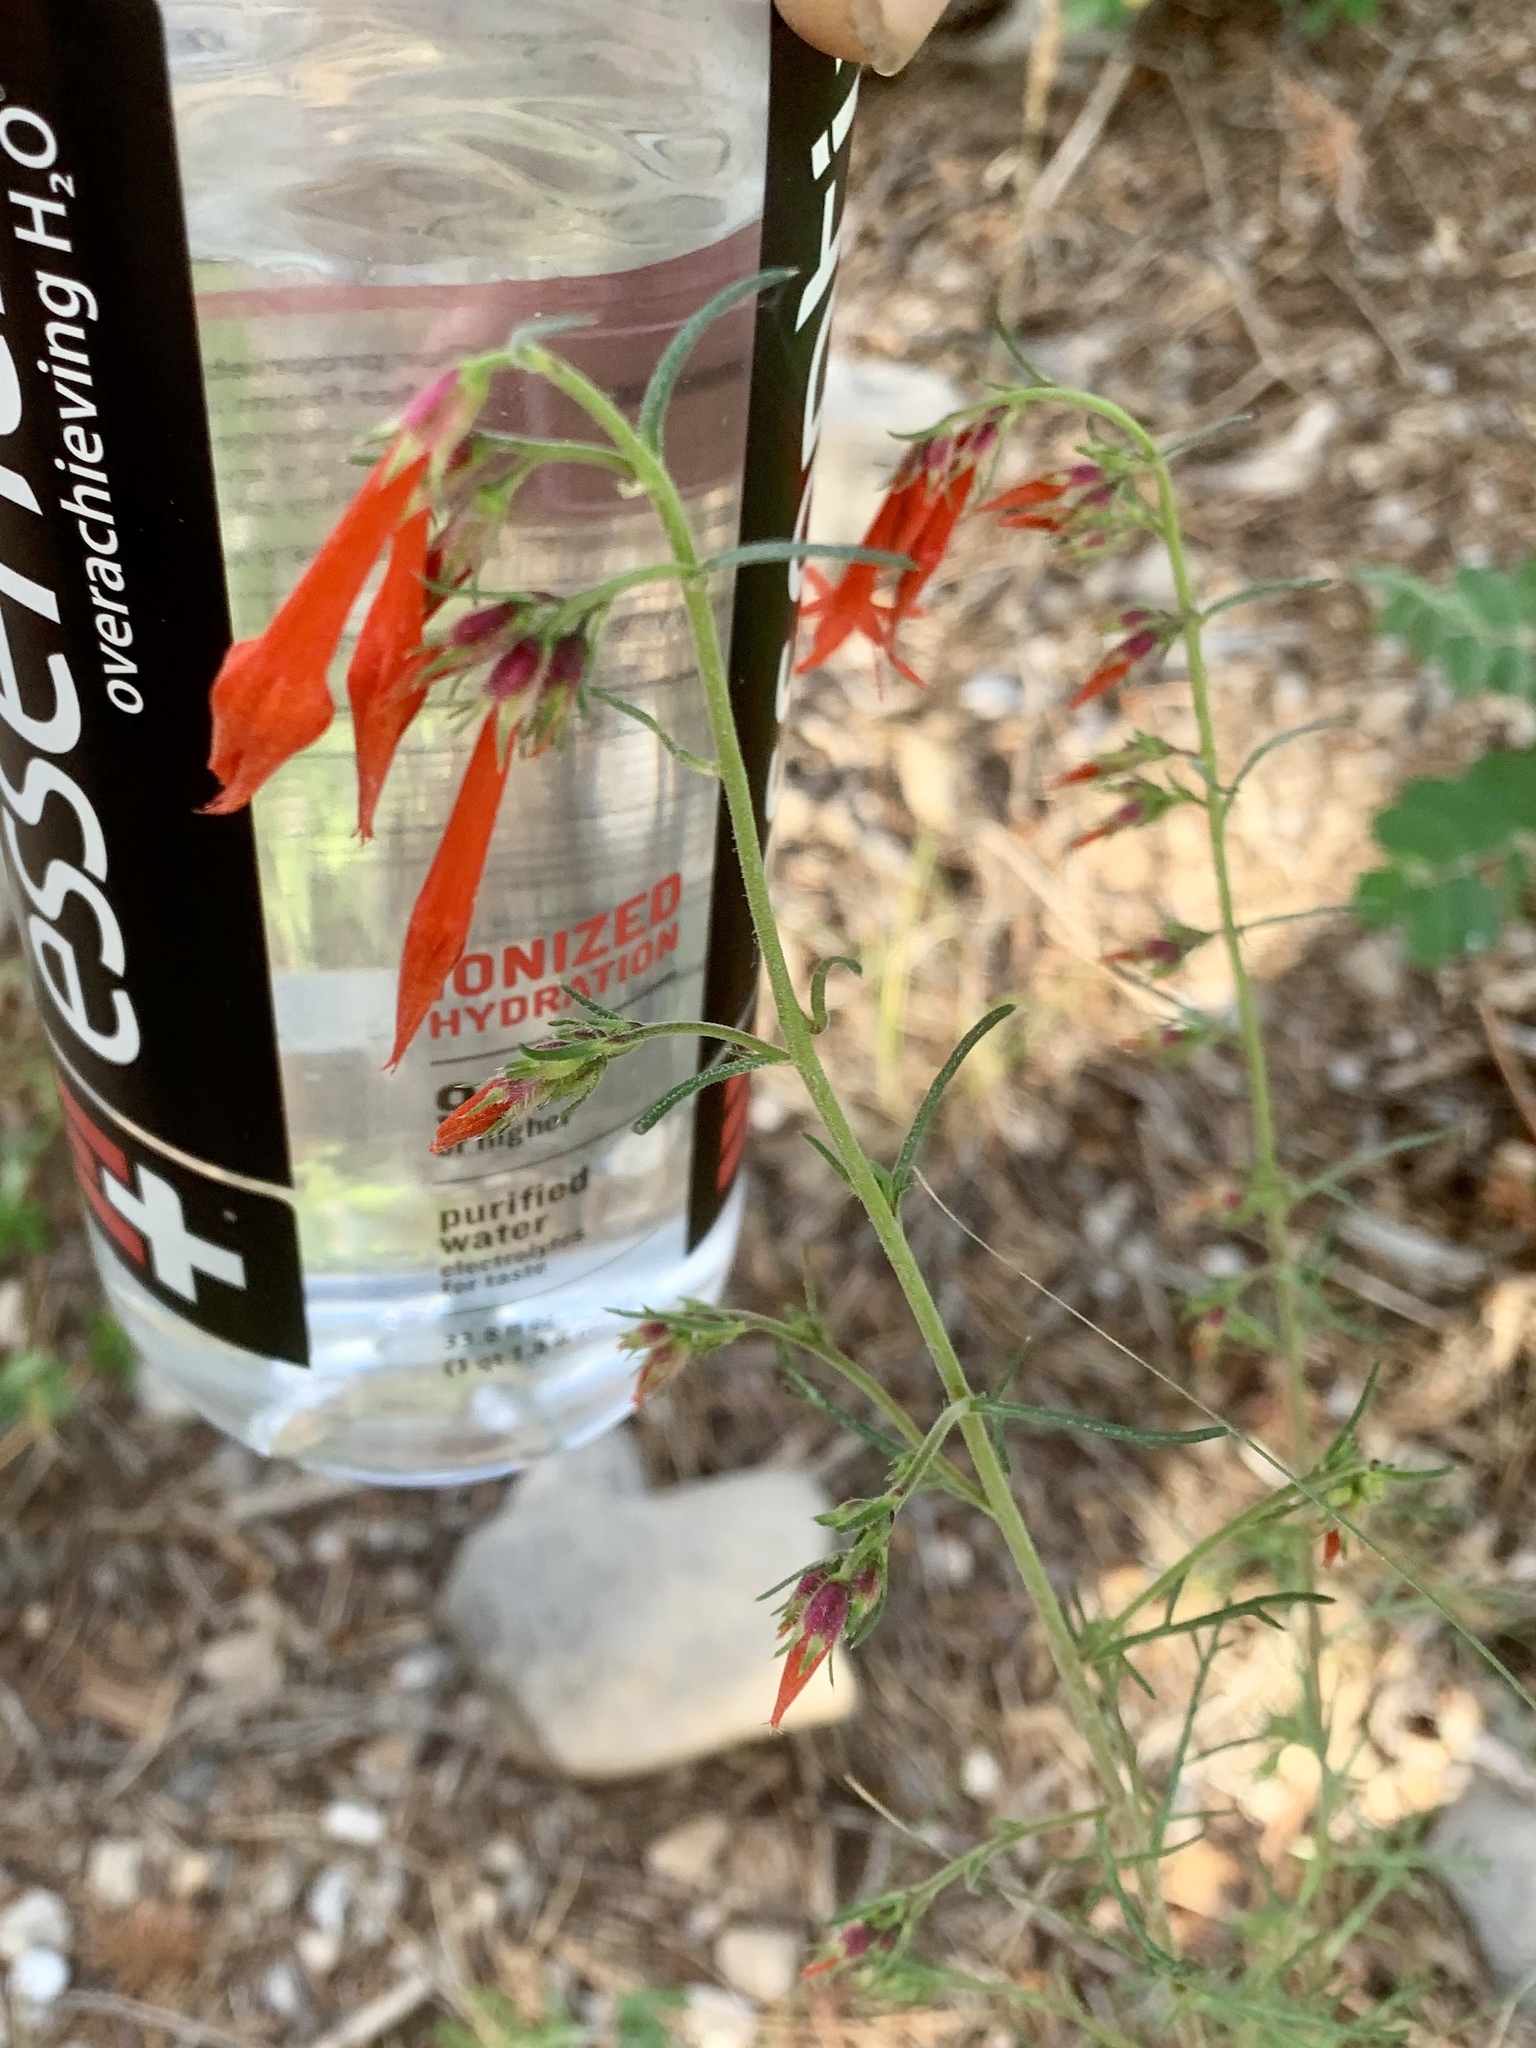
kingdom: Plantae
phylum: Tracheophyta
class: Magnoliopsida
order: Ericales
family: Polemoniaceae
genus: Ipomopsis
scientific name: Ipomopsis aggregata
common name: Scarlet gilia
